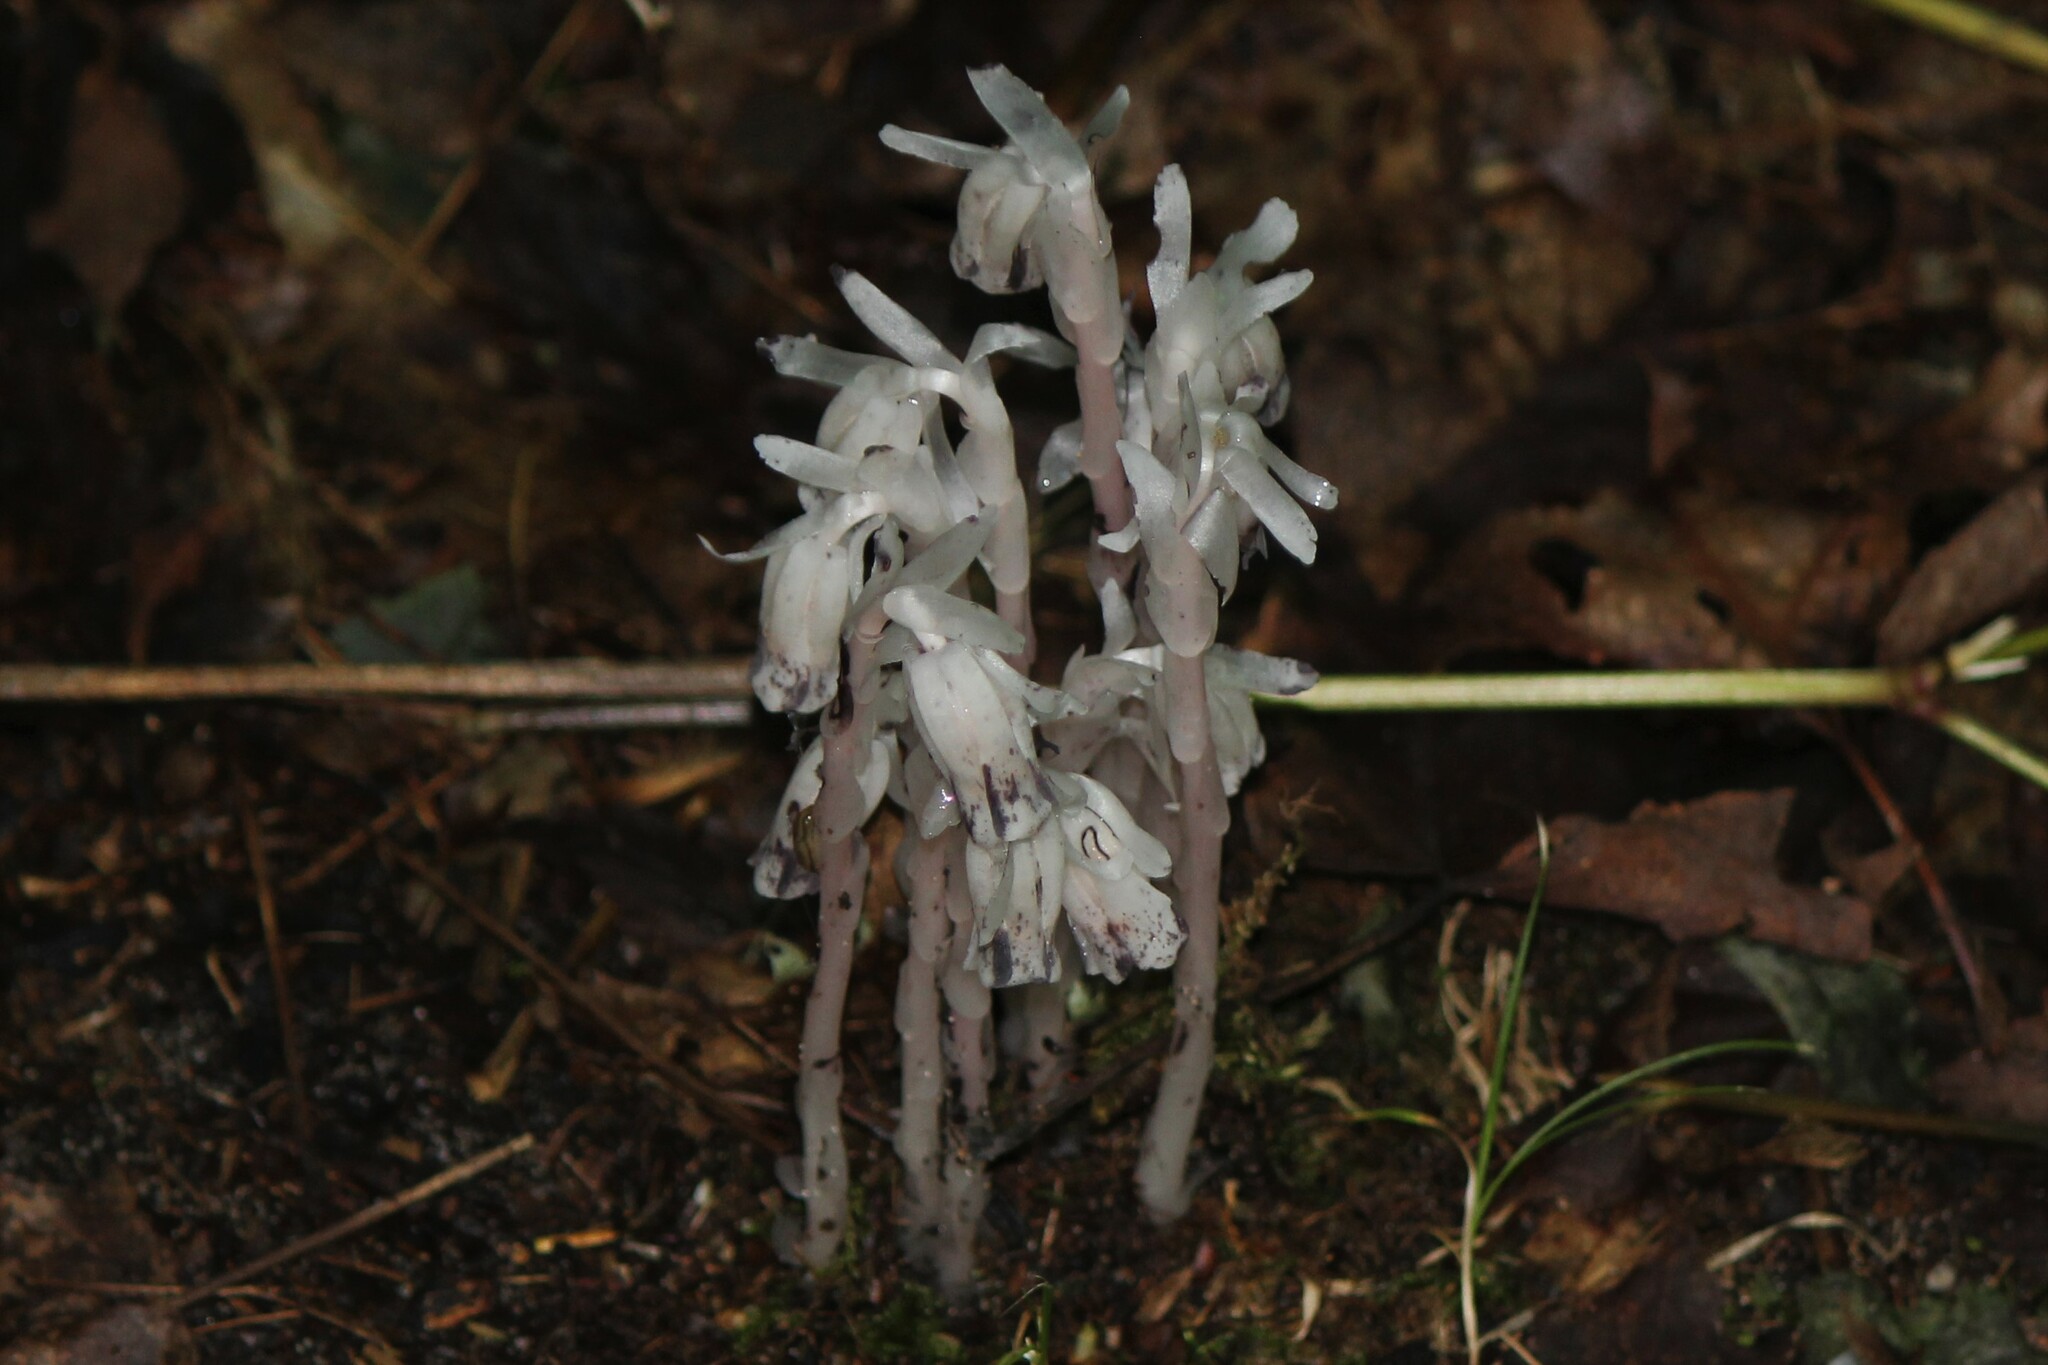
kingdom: Plantae
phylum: Tracheophyta
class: Magnoliopsida
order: Ericales
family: Ericaceae
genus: Monotropa
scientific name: Monotropa uniflora
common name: Convulsion root
